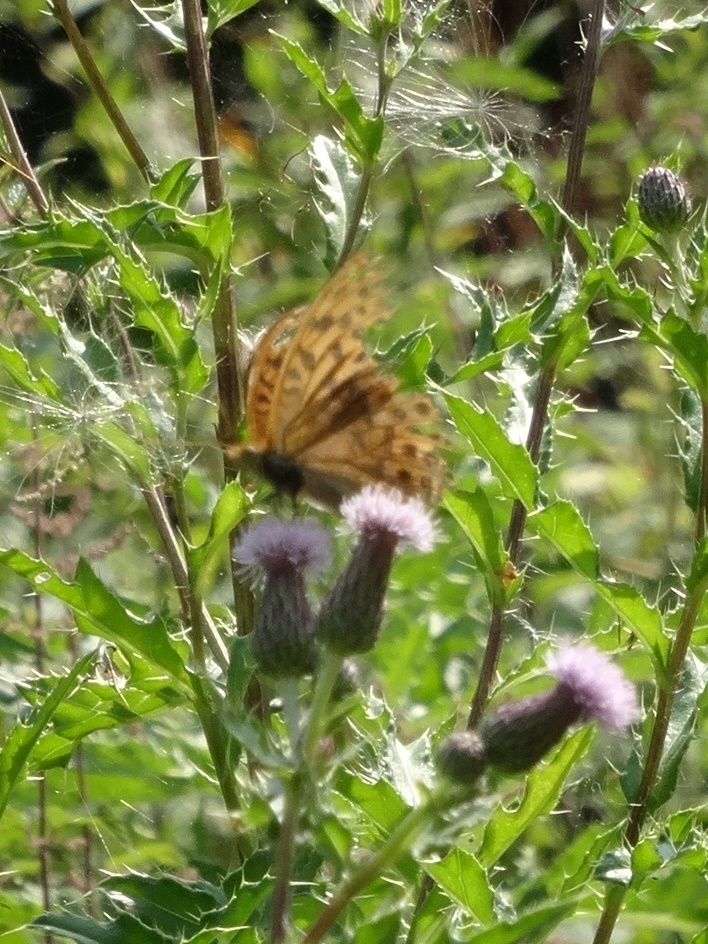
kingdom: Animalia
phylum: Arthropoda
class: Insecta
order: Lepidoptera
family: Nymphalidae
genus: Argynnis
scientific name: Argynnis paphia
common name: Silver-washed fritillary
